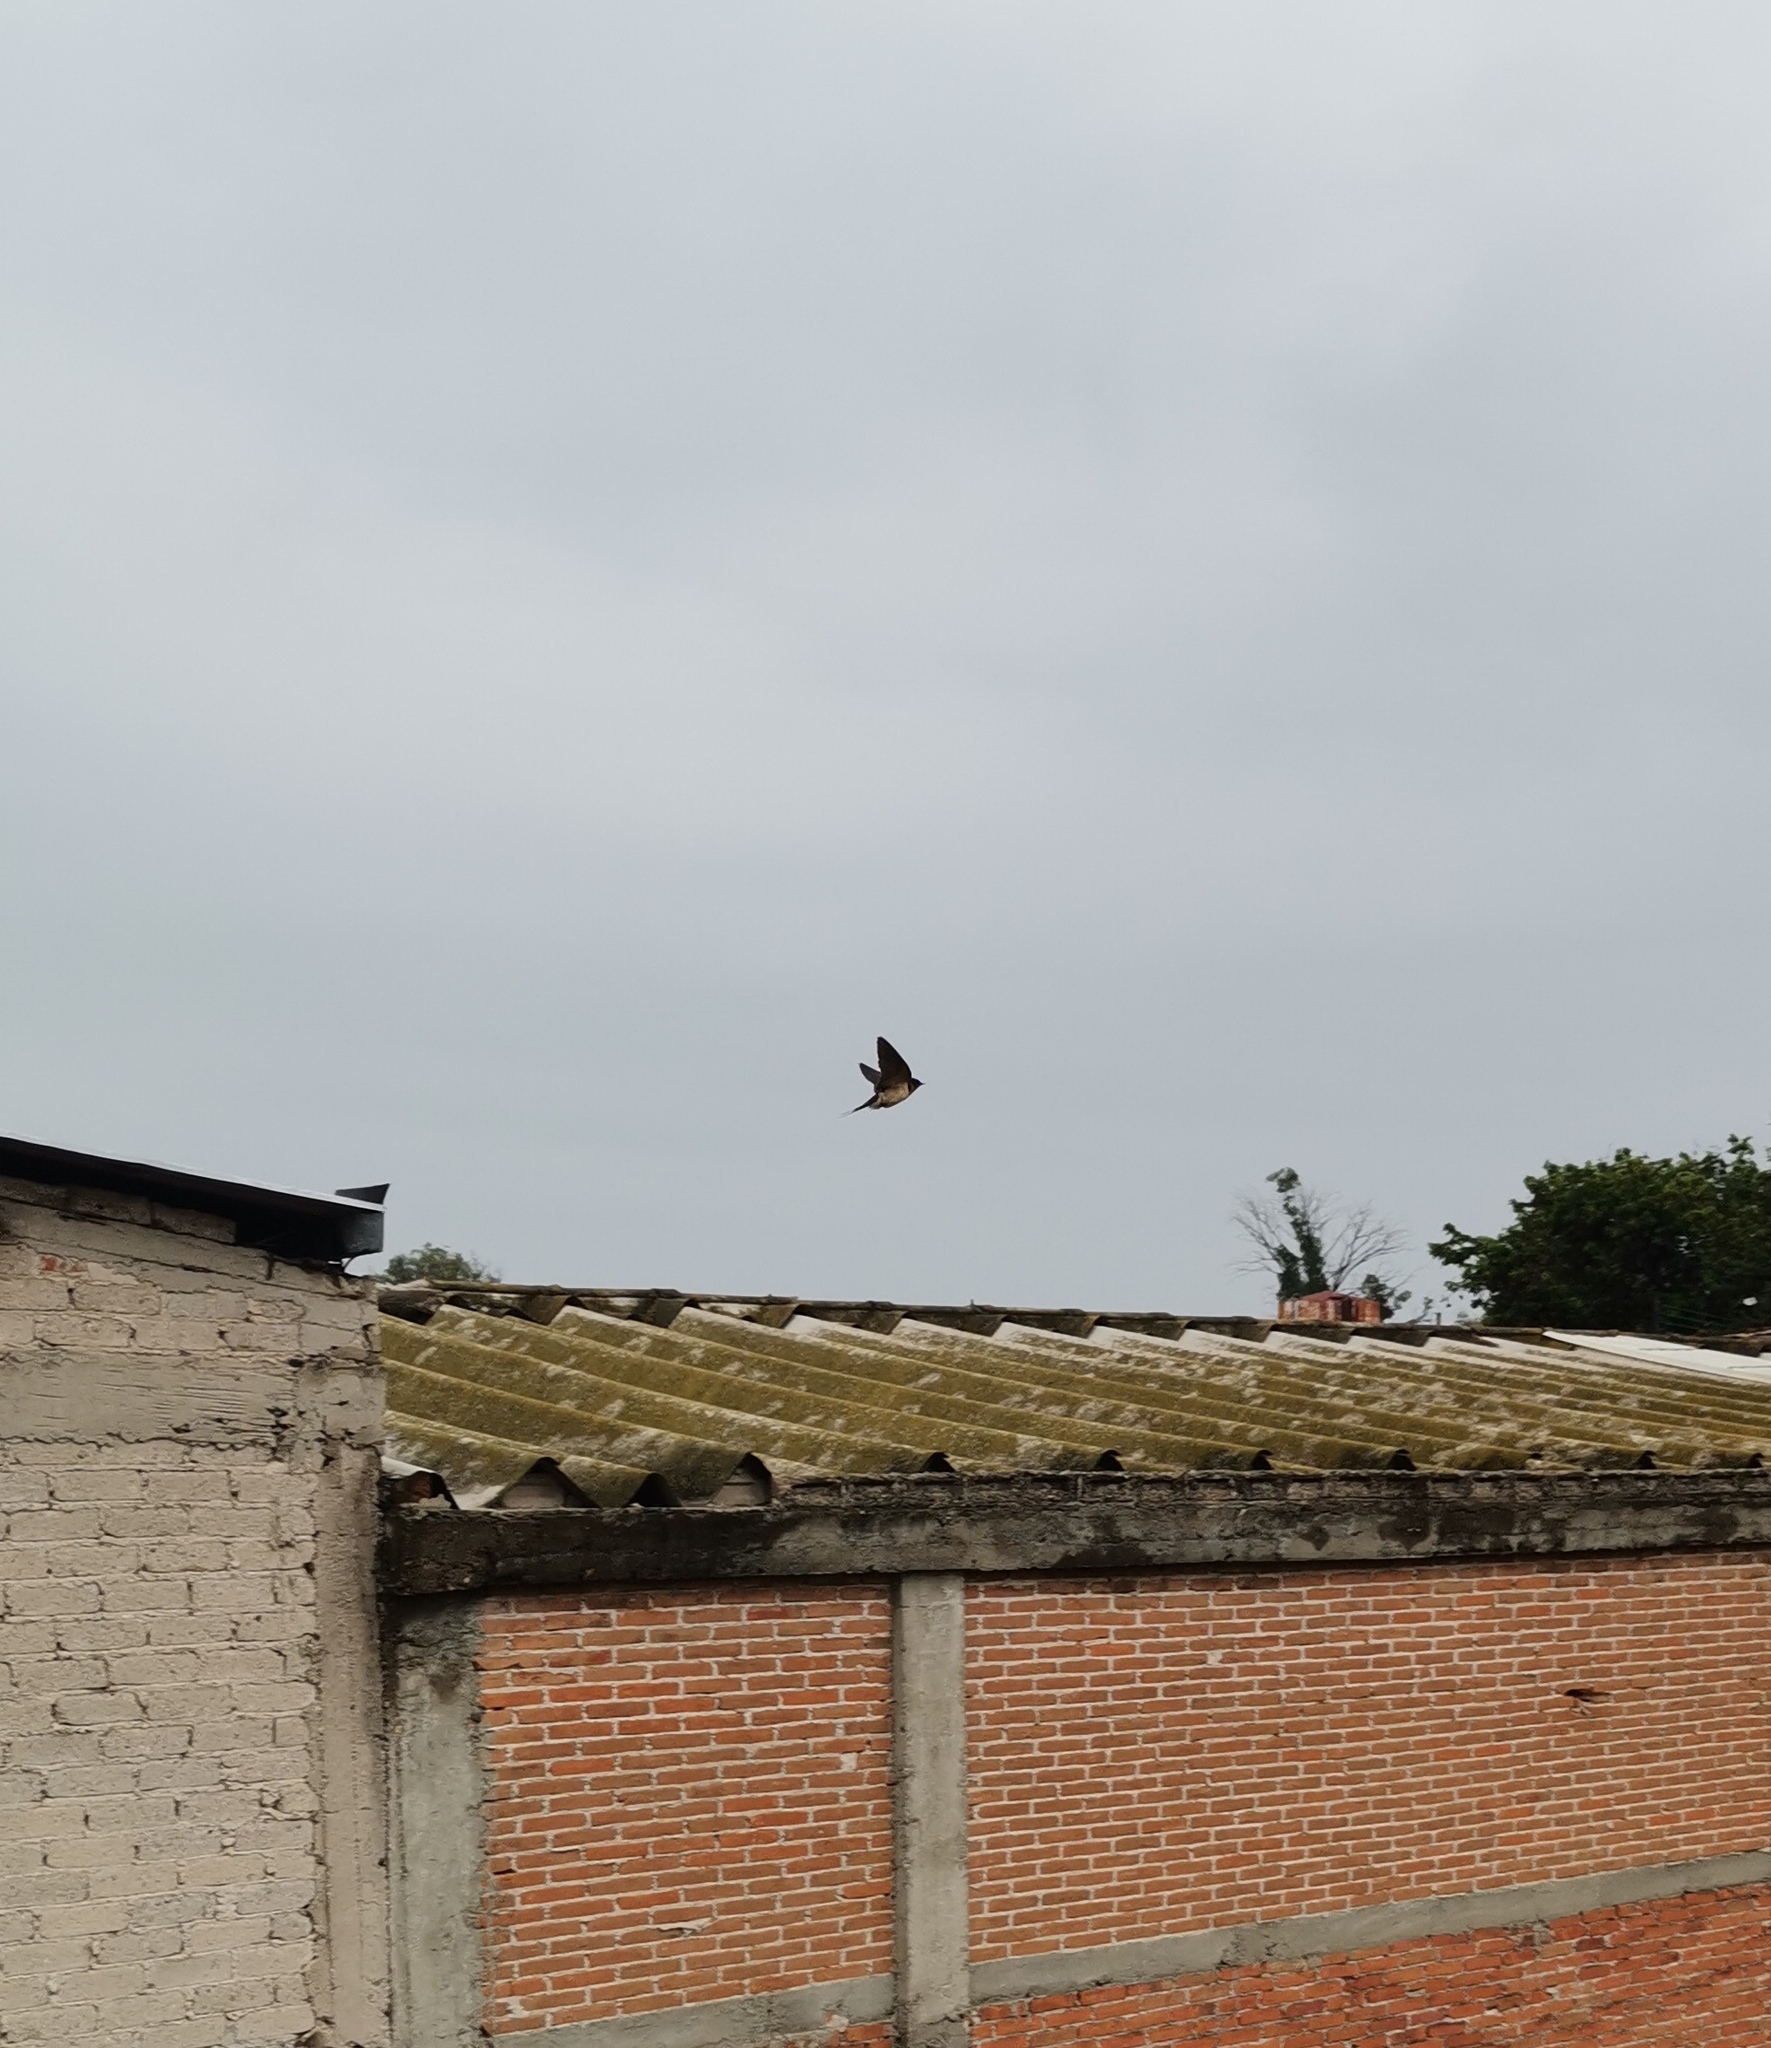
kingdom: Animalia
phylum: Chordata
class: Aves
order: Passeriformes
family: Hirundinidae
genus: Hirundo
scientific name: Hirundo rustica
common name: Barn swallow
